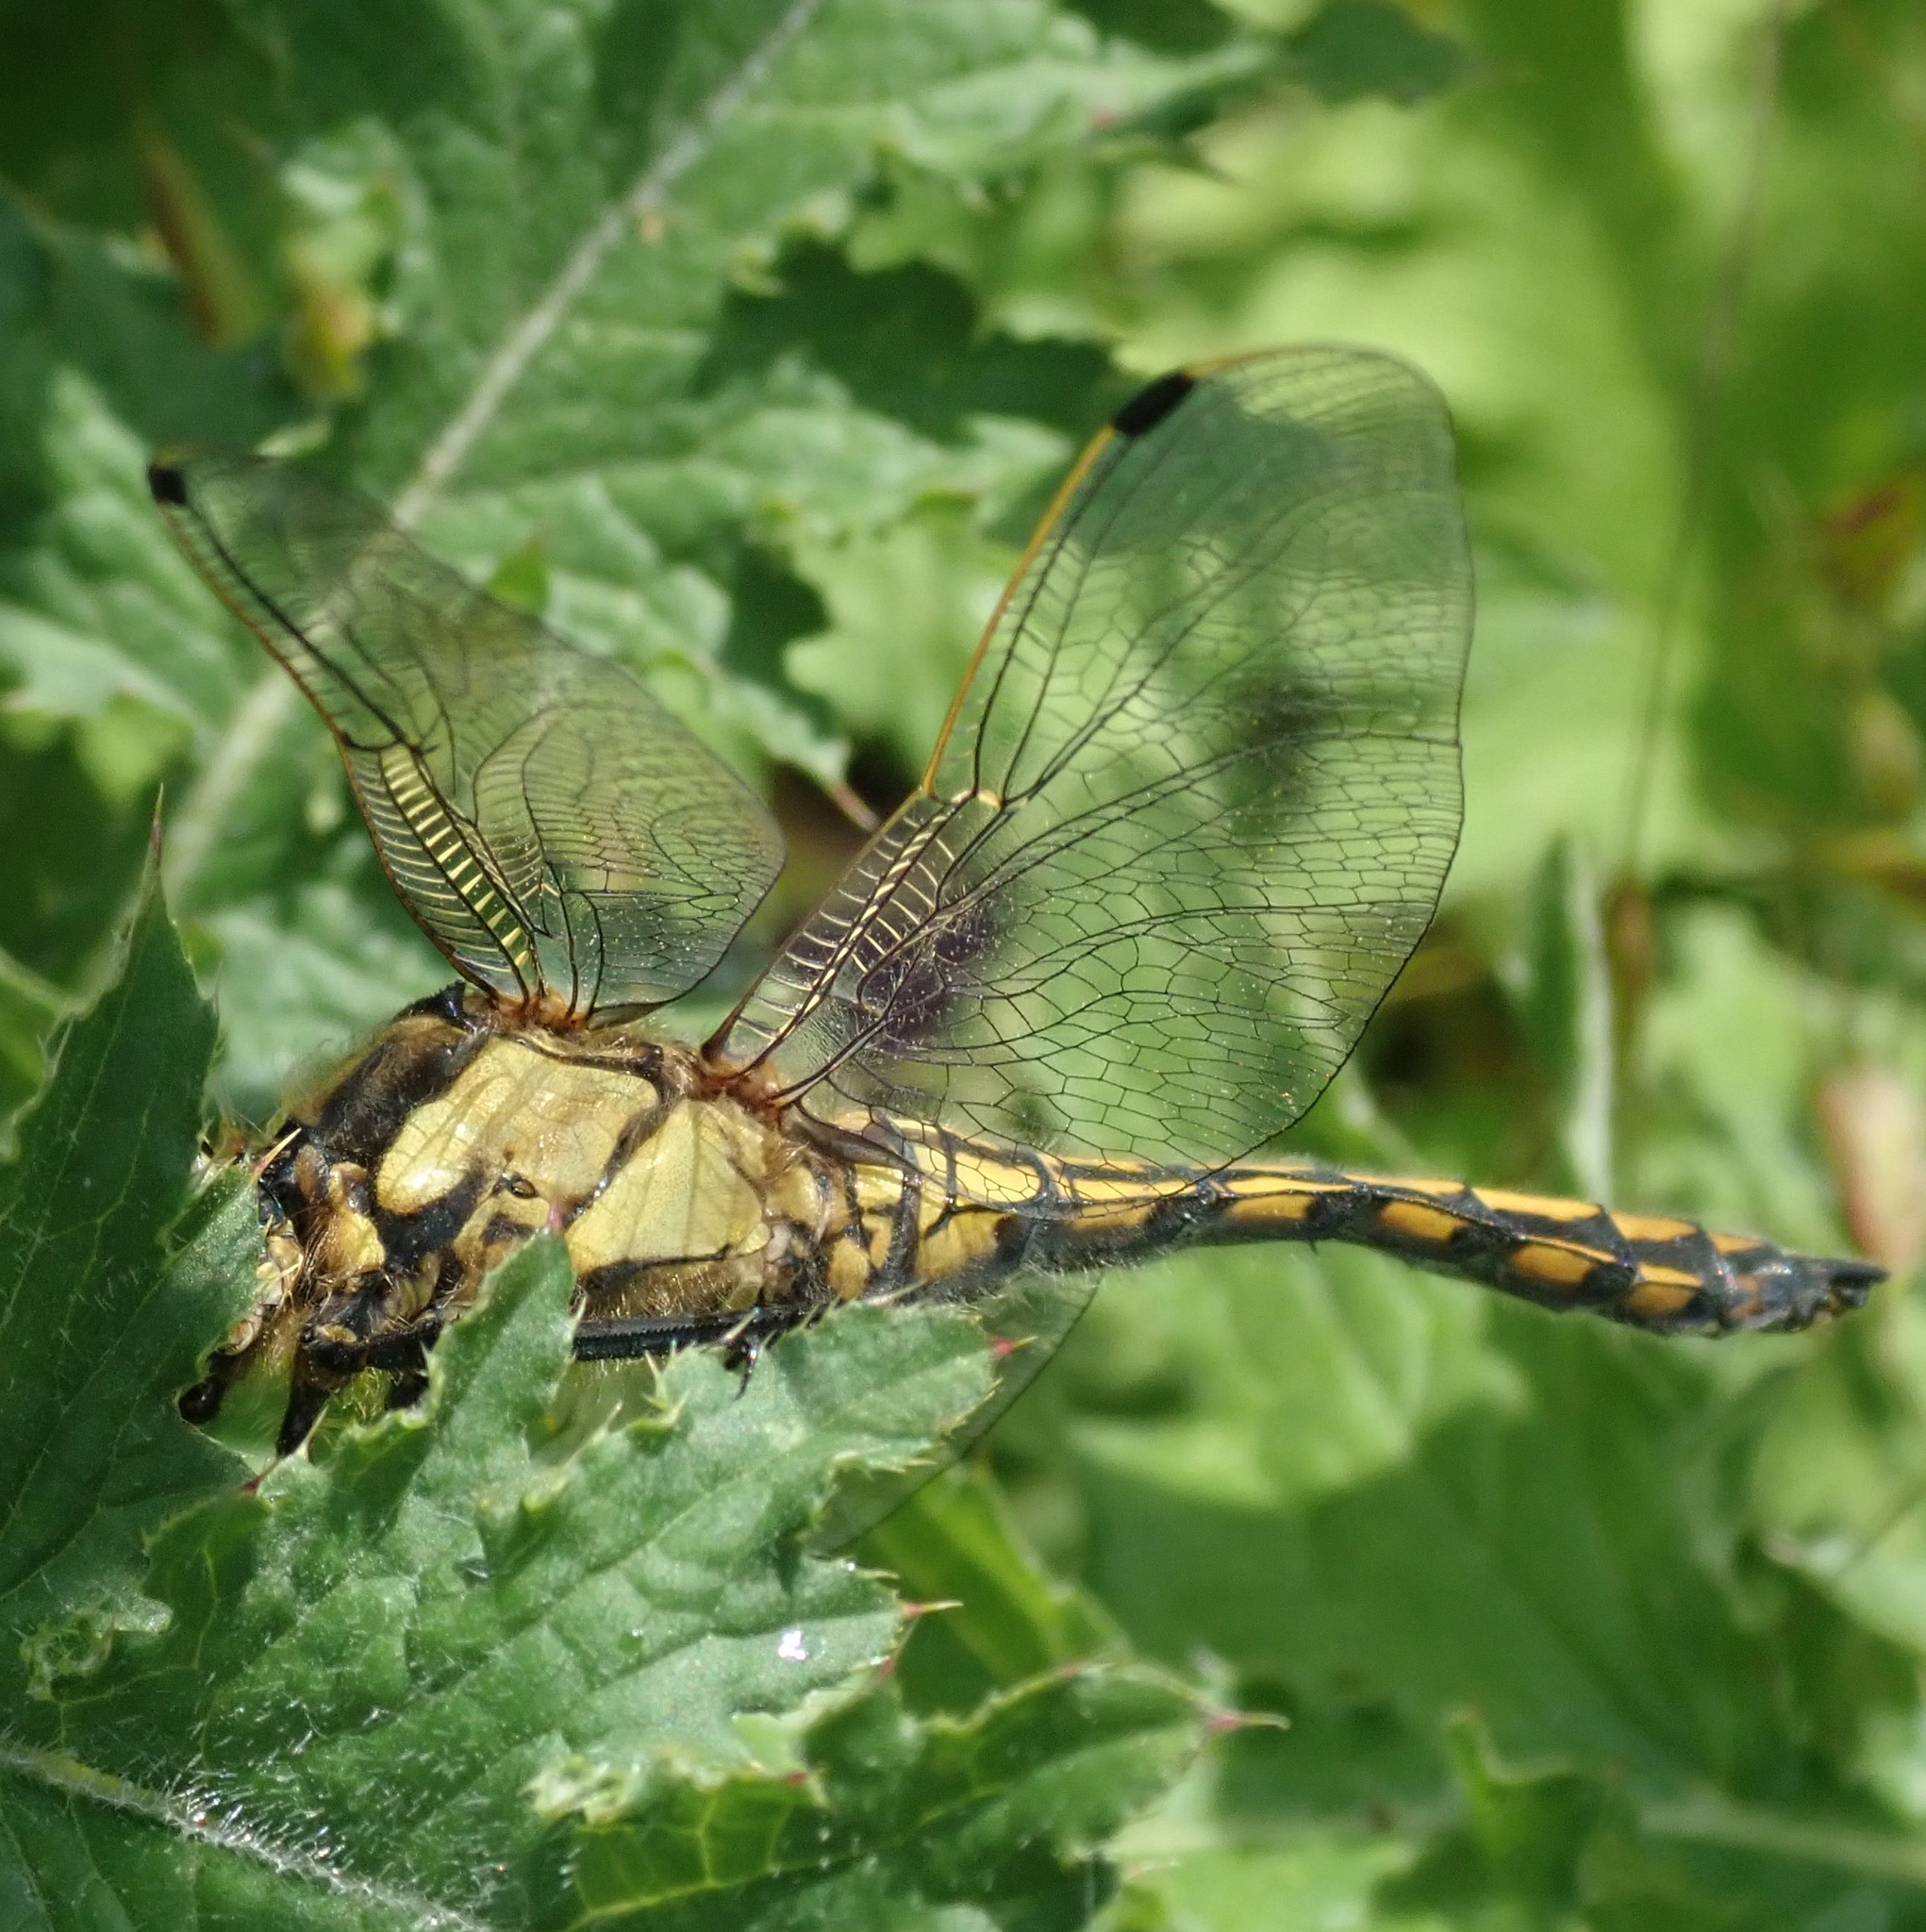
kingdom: Animalia
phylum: Arthropoda
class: Insecta
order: Odonata
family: Libellulidae
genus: Orthetrum
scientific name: Orthetrum cancellatum
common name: Black-tailed skimmer
